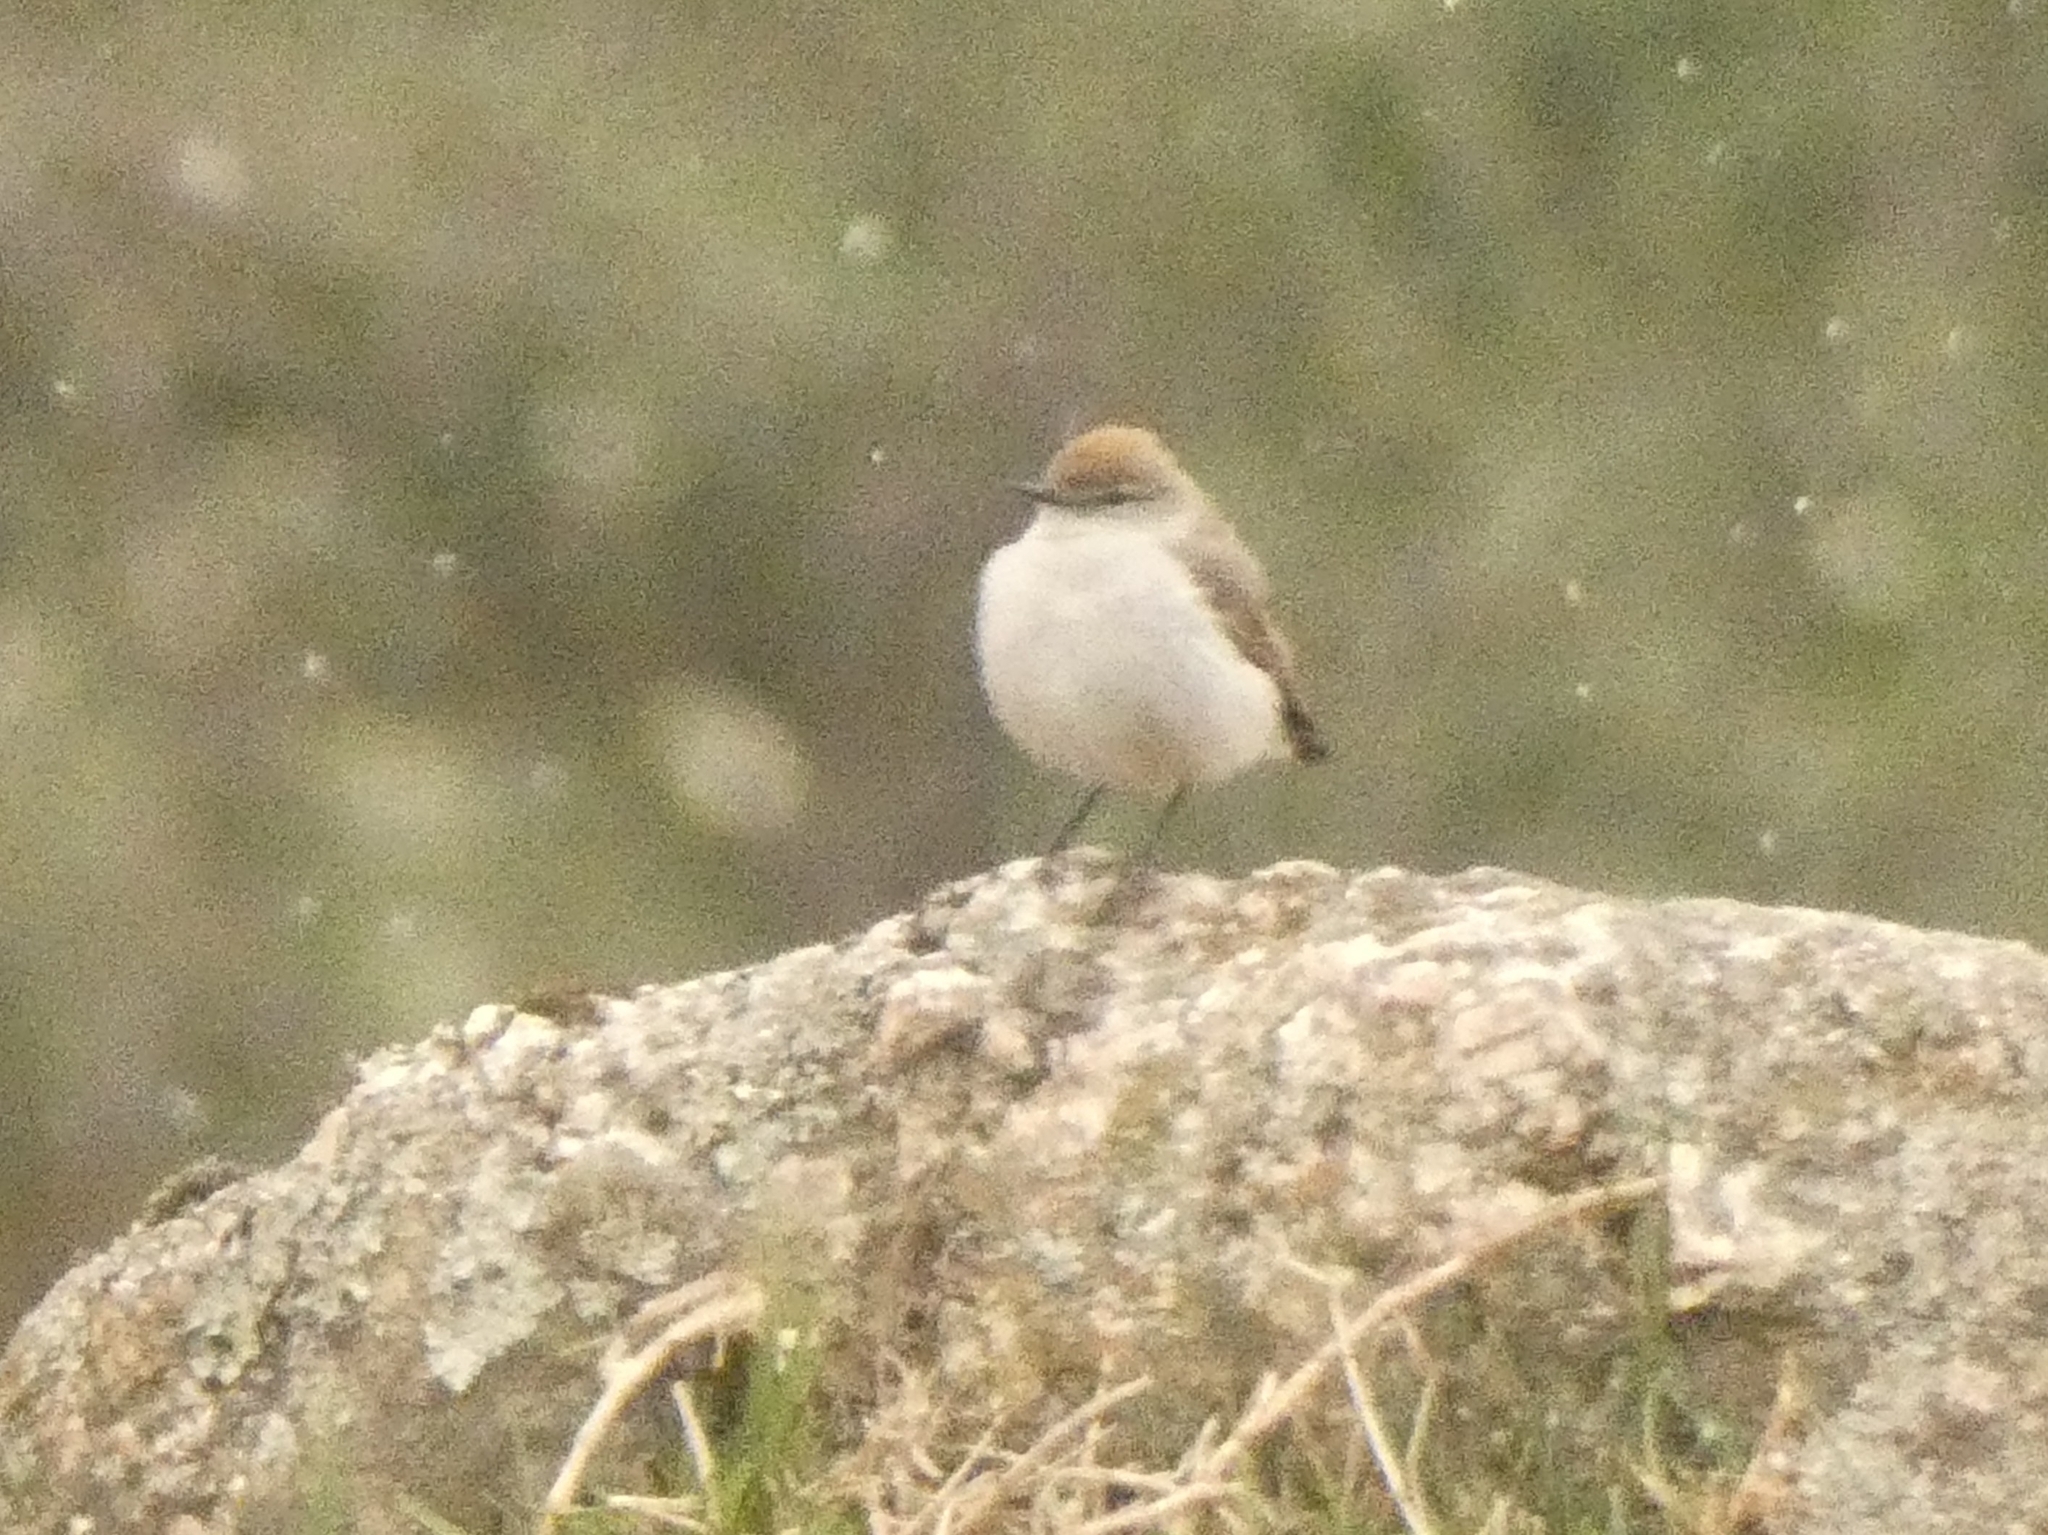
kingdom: Animalia
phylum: Chordata
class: Aves
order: Passeriformes
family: Tyrannidae
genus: Muscisaxicola
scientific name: Muscisaxicola albilora
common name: White-browed ground tyrant
